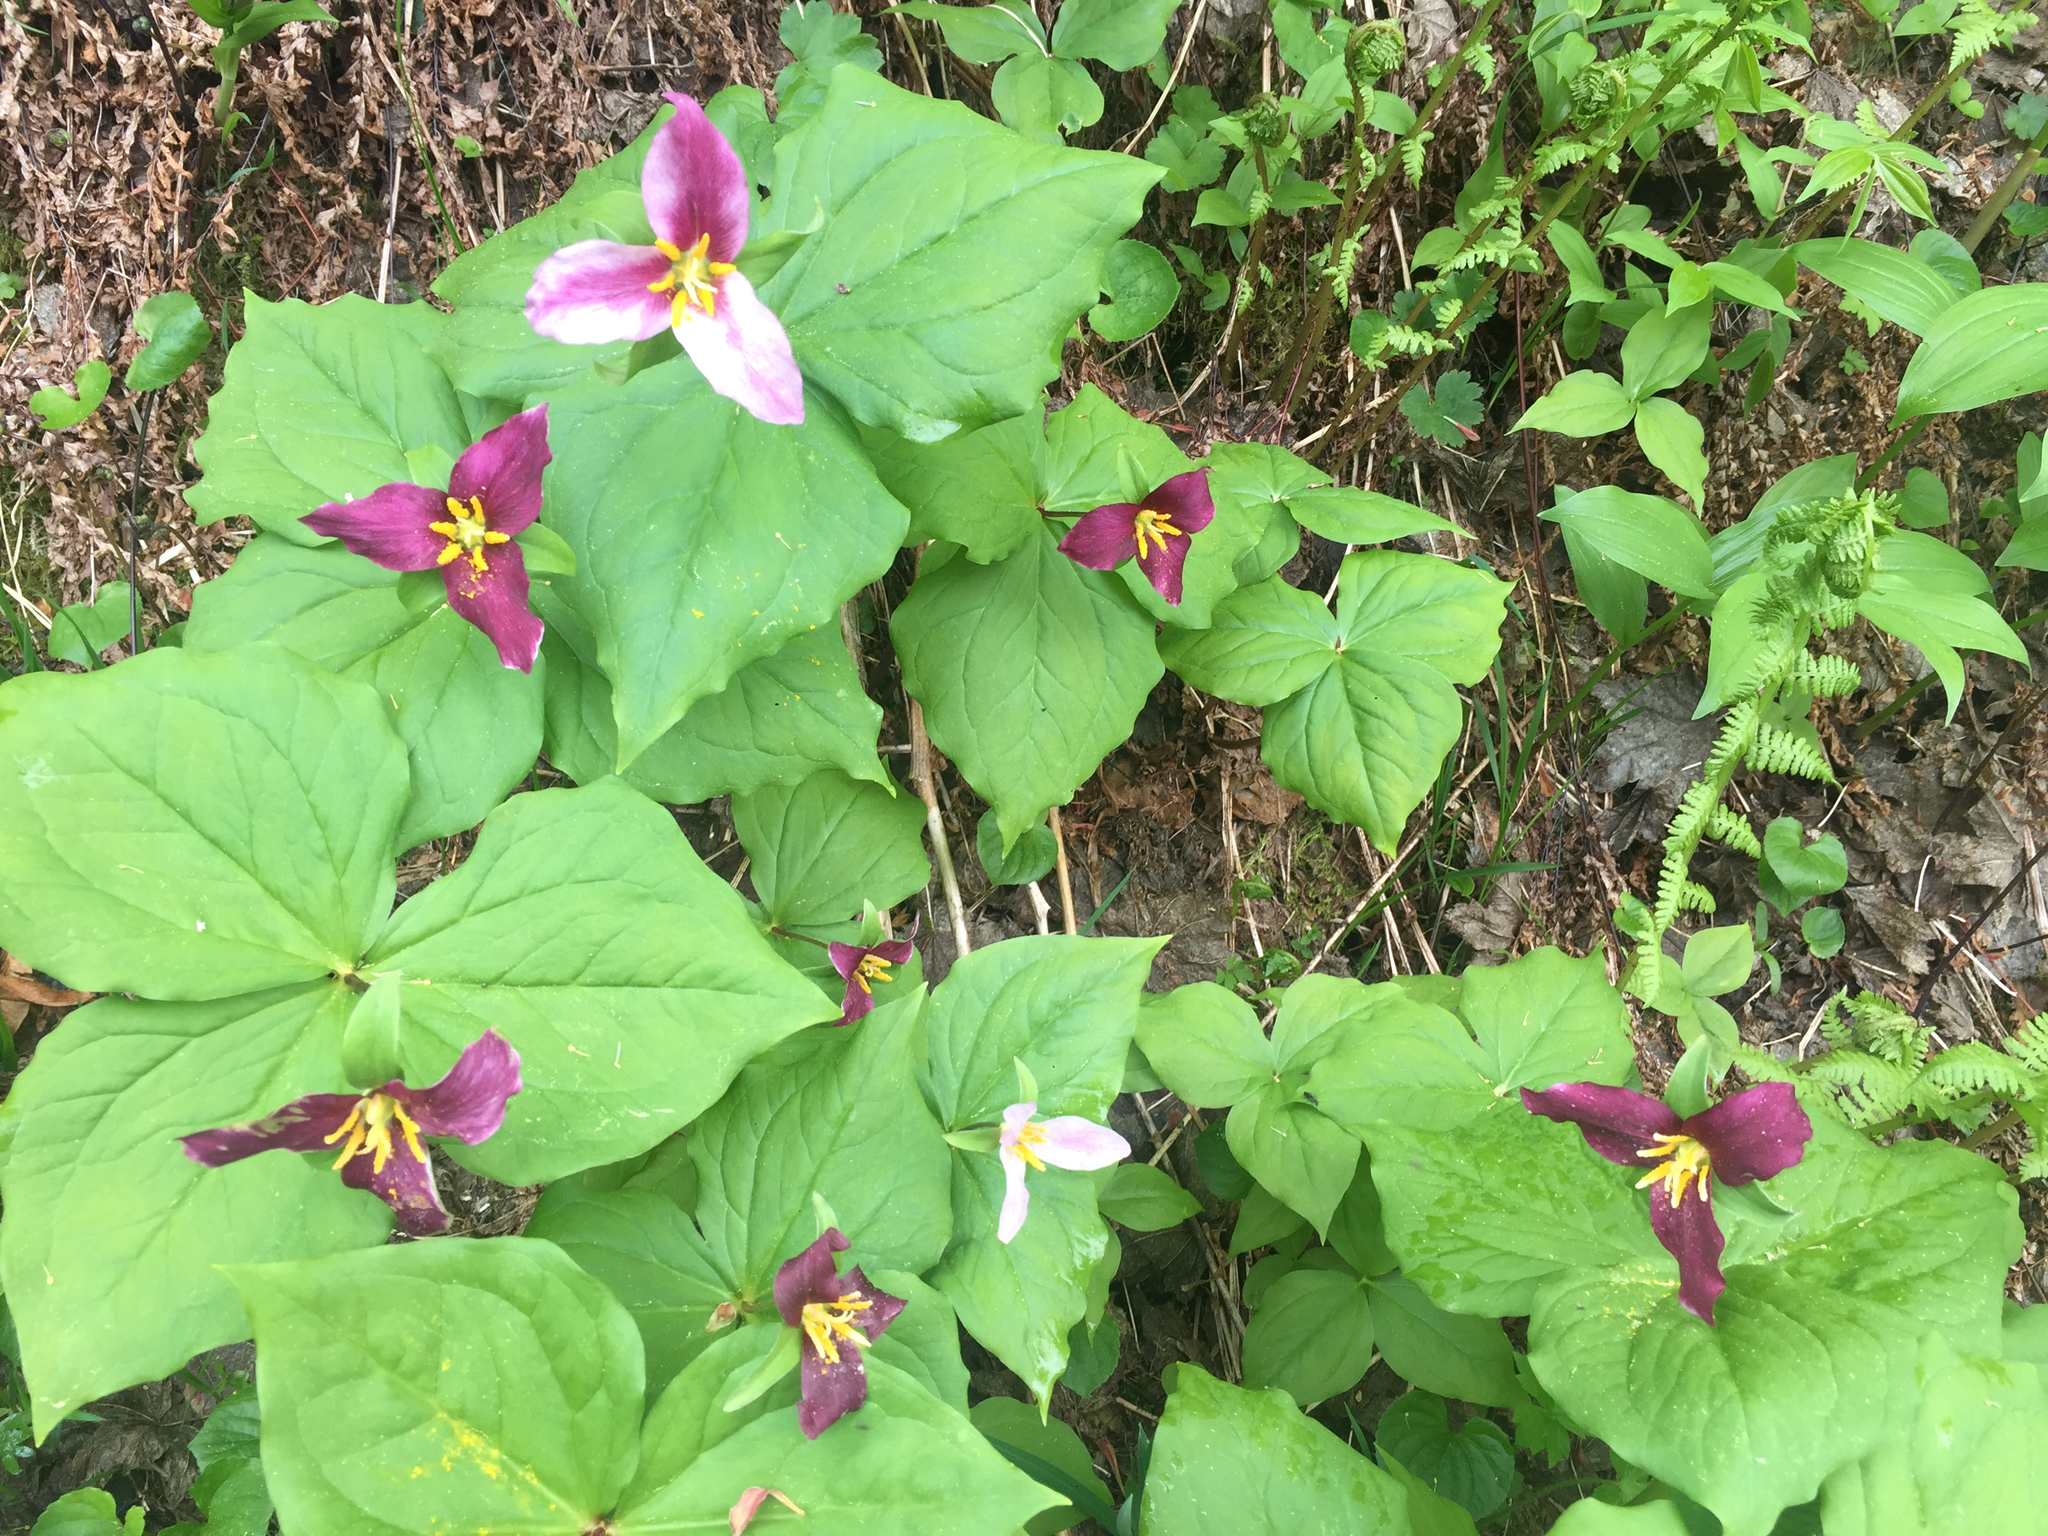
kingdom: Plantae
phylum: Tracheophyta
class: Liliopsida
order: Liliales
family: Melanthiaceae
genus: Trillium
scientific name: Trillium ovatum
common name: Pacific trillium
